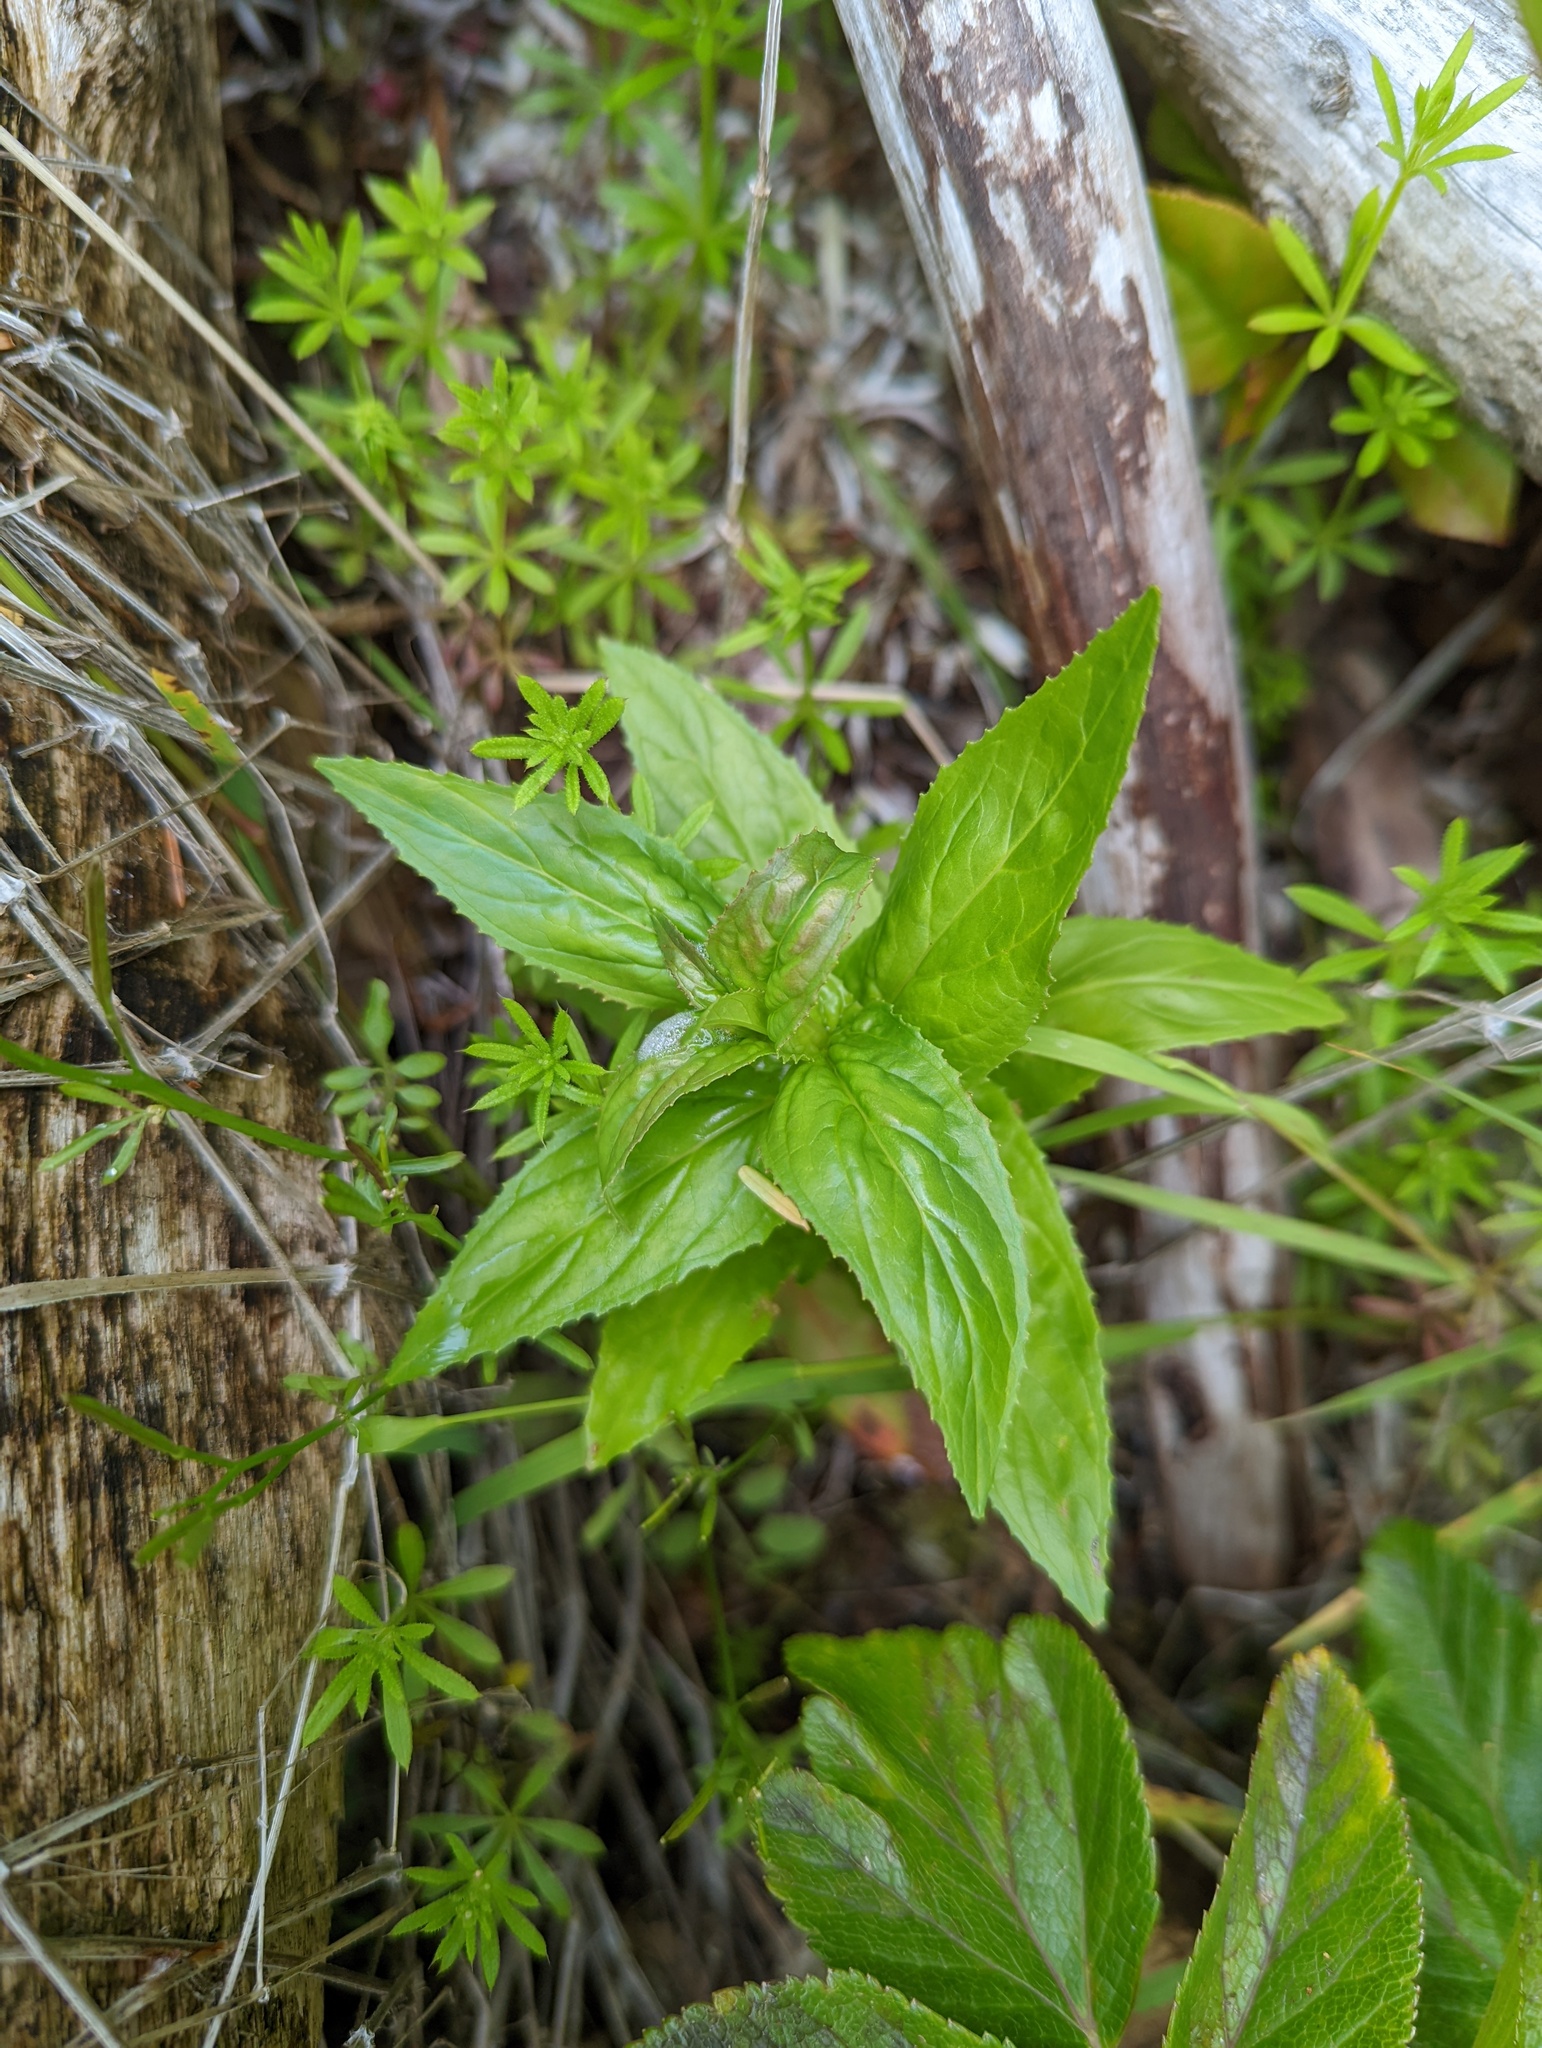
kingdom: Plantae
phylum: Tracheophyta
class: Magnoliopsida
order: Myrtales
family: Onagraceae
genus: Epilobium
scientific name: Epilobium ciliatum
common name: American willowherb
